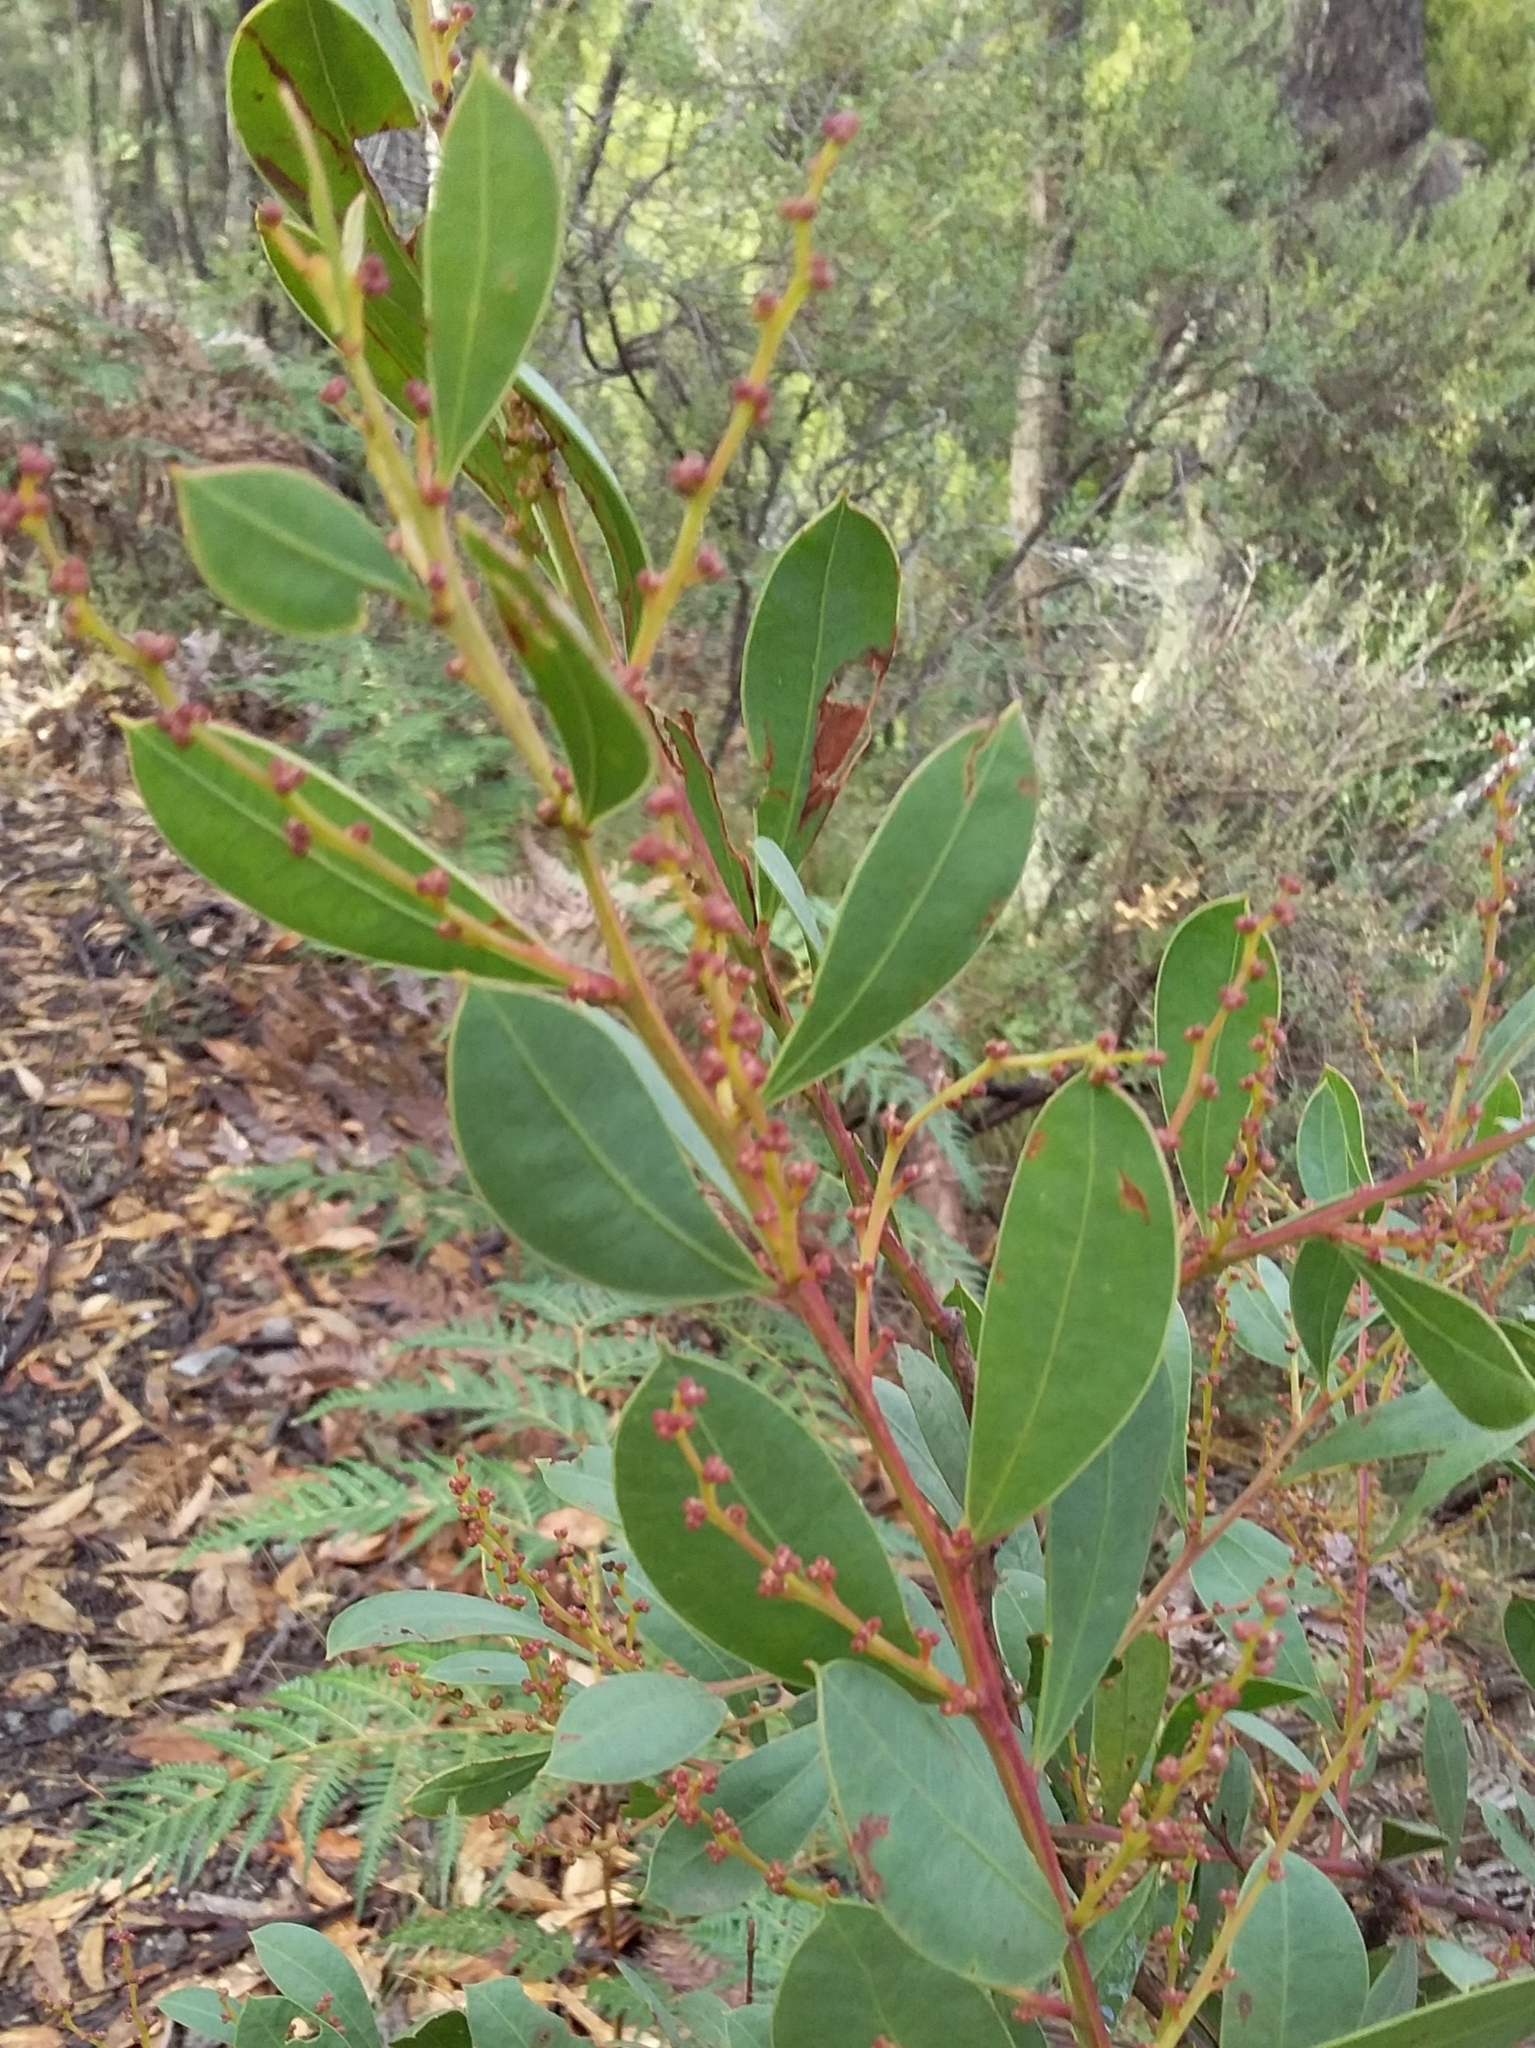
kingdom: Plantae
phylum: Tracheophyta
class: Magnoliopsida
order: Fabales
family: Fabaceae
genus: Acacia
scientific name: Acacia myrtifolia
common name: Myrtle wattle
